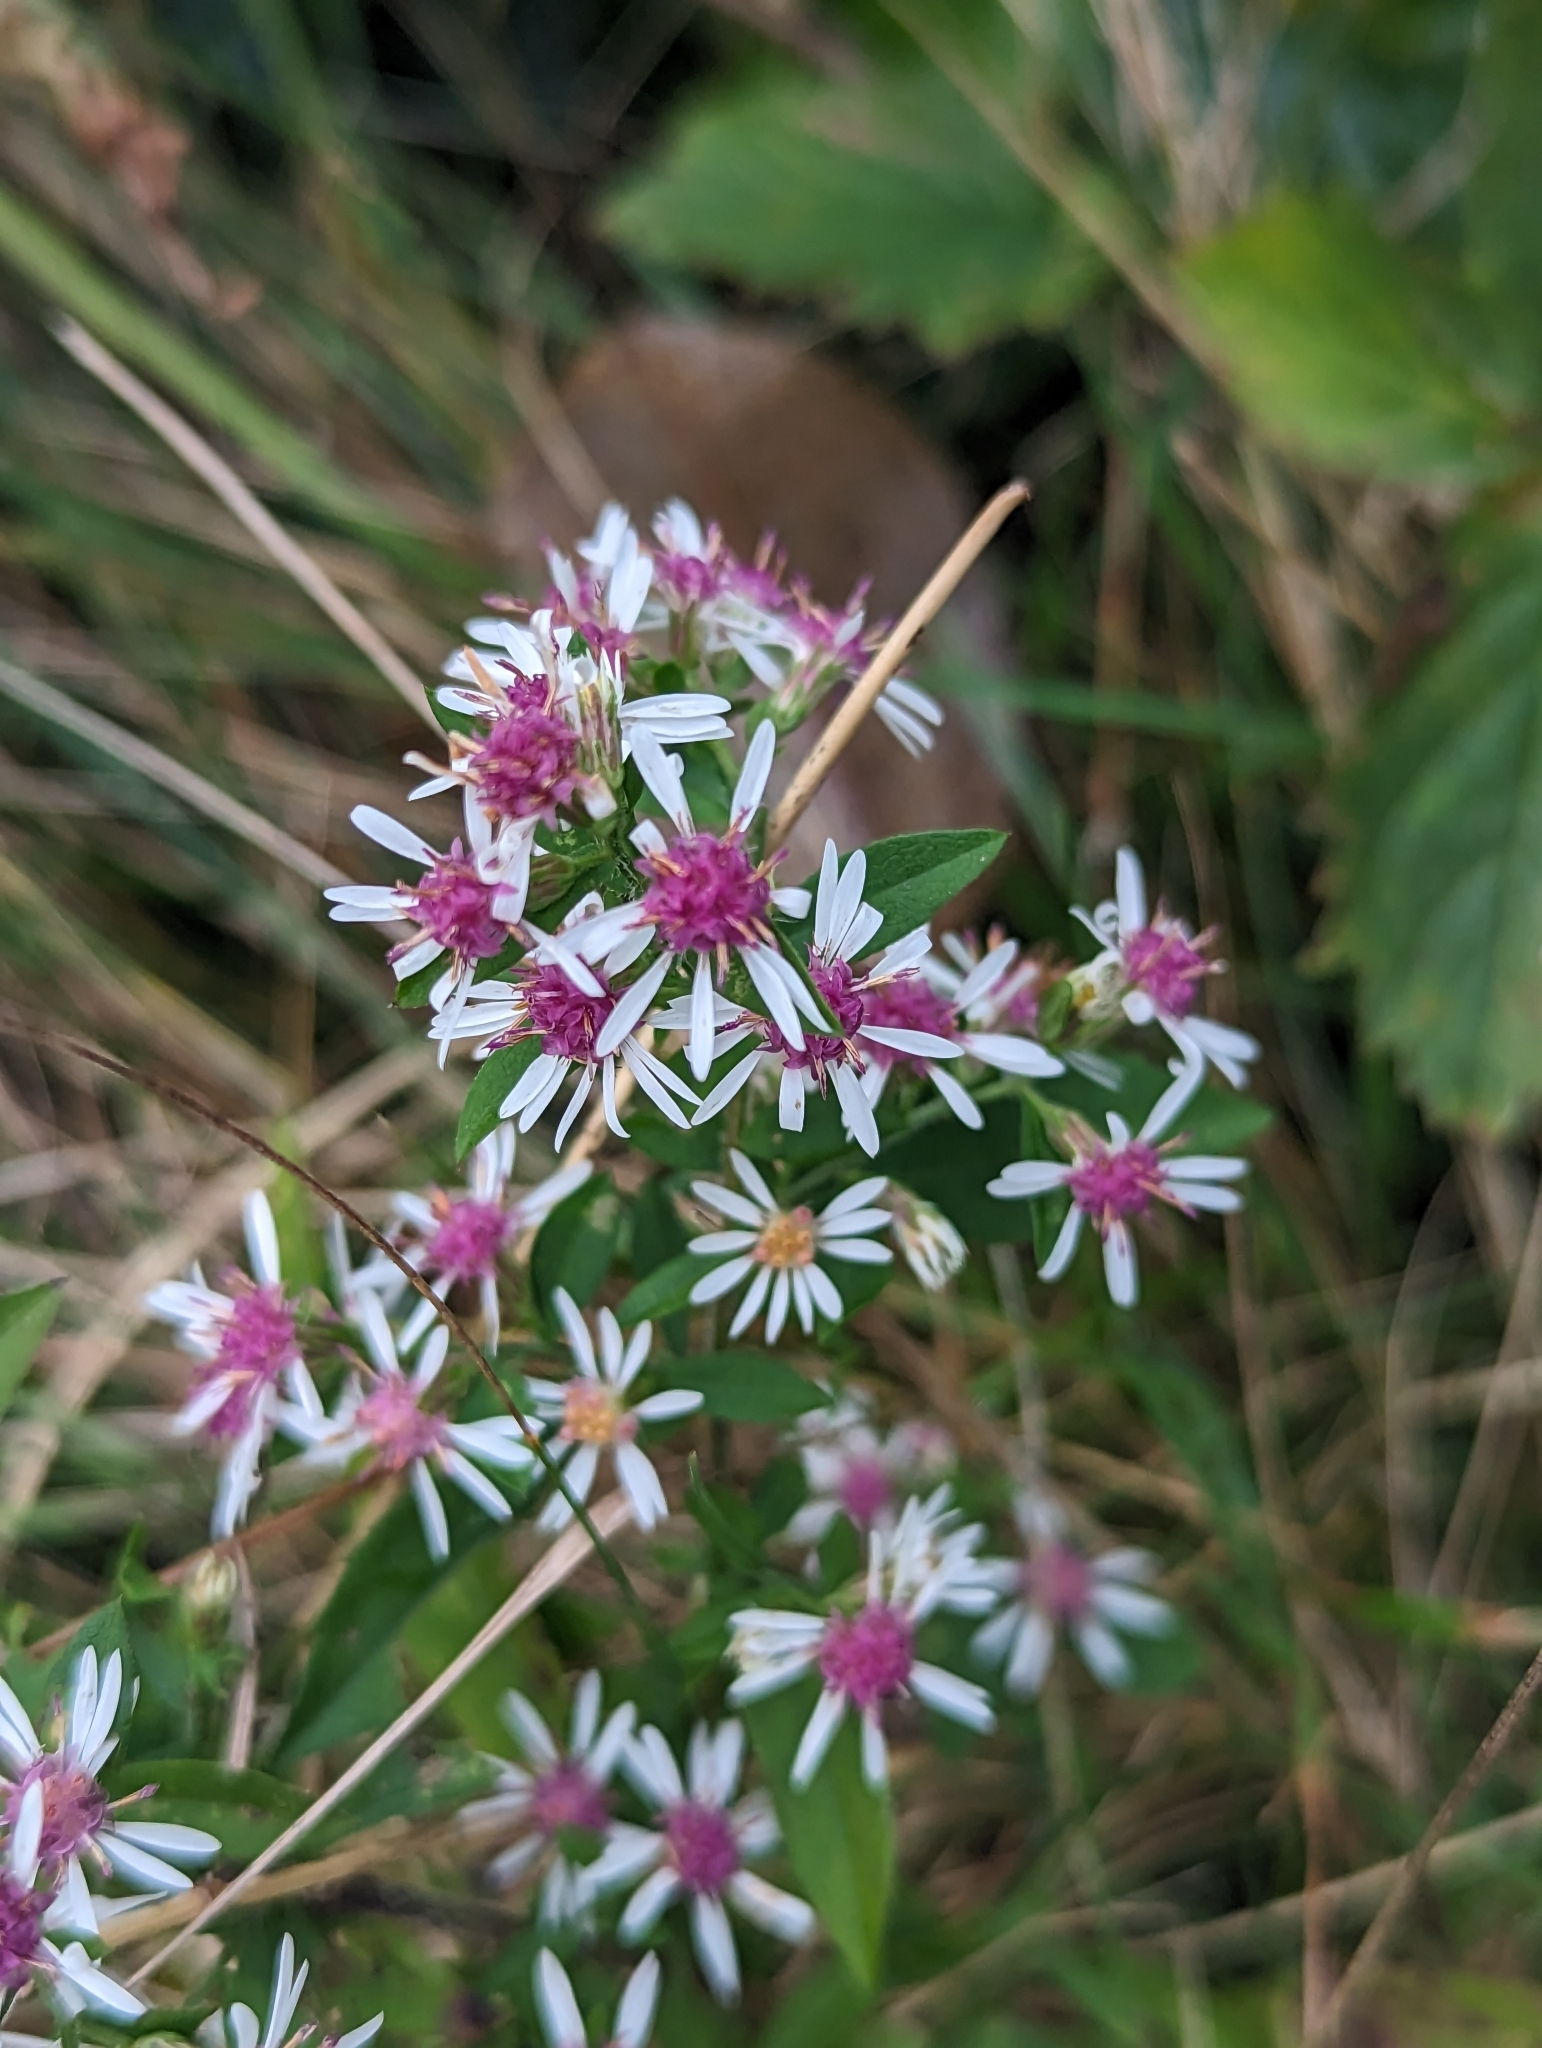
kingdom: Plantae
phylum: Tracheophyta
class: Magnoliopsida
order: Asterales
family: Asteraceae
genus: Symphyotrichum
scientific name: Symphyotrichum lateriflorum
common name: Calico aster
